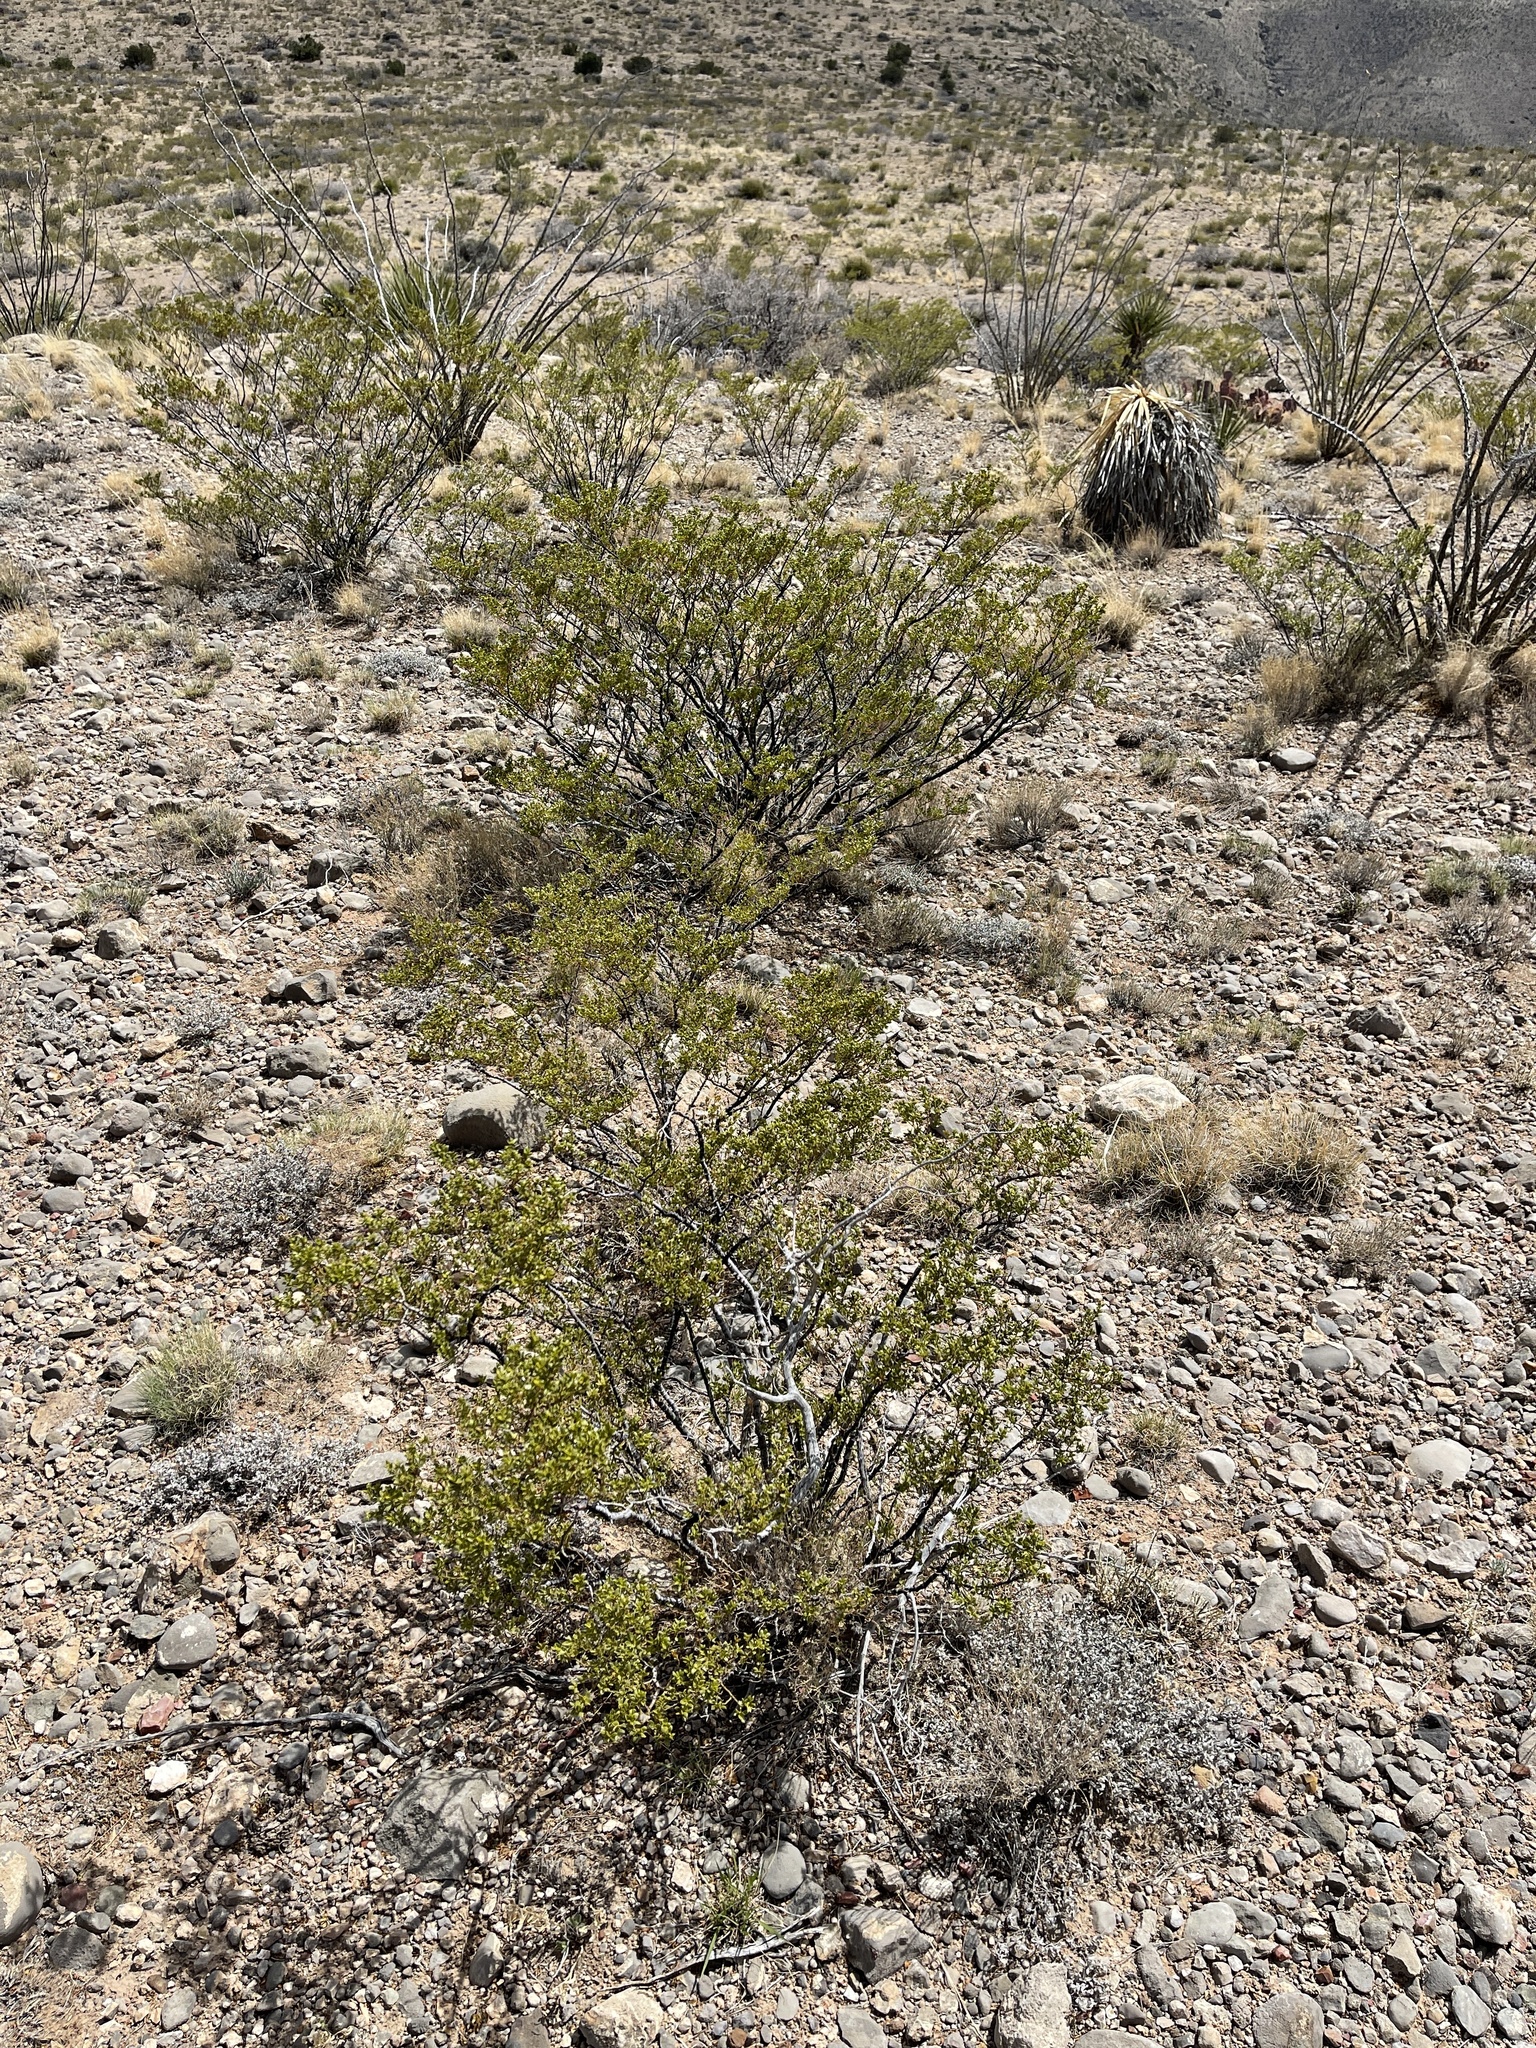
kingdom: Plantae
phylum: Tracheophyta
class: Magnoliopsida
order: Zygophyllales
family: Zygophyllaceae
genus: Larrea
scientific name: Larrea tridentata
